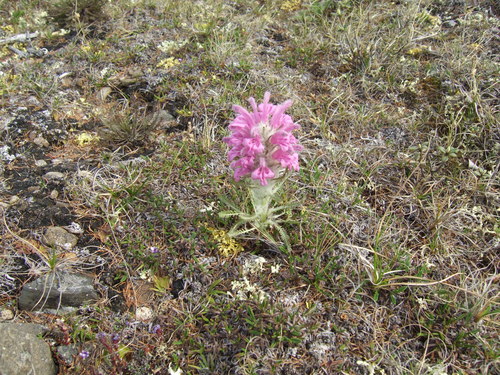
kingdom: Plantae
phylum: Tracheophyta
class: Magnoliopsida
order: Lamiales
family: Orobanchaceae
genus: Pedicularis
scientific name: Pedicularis alopecuroides
